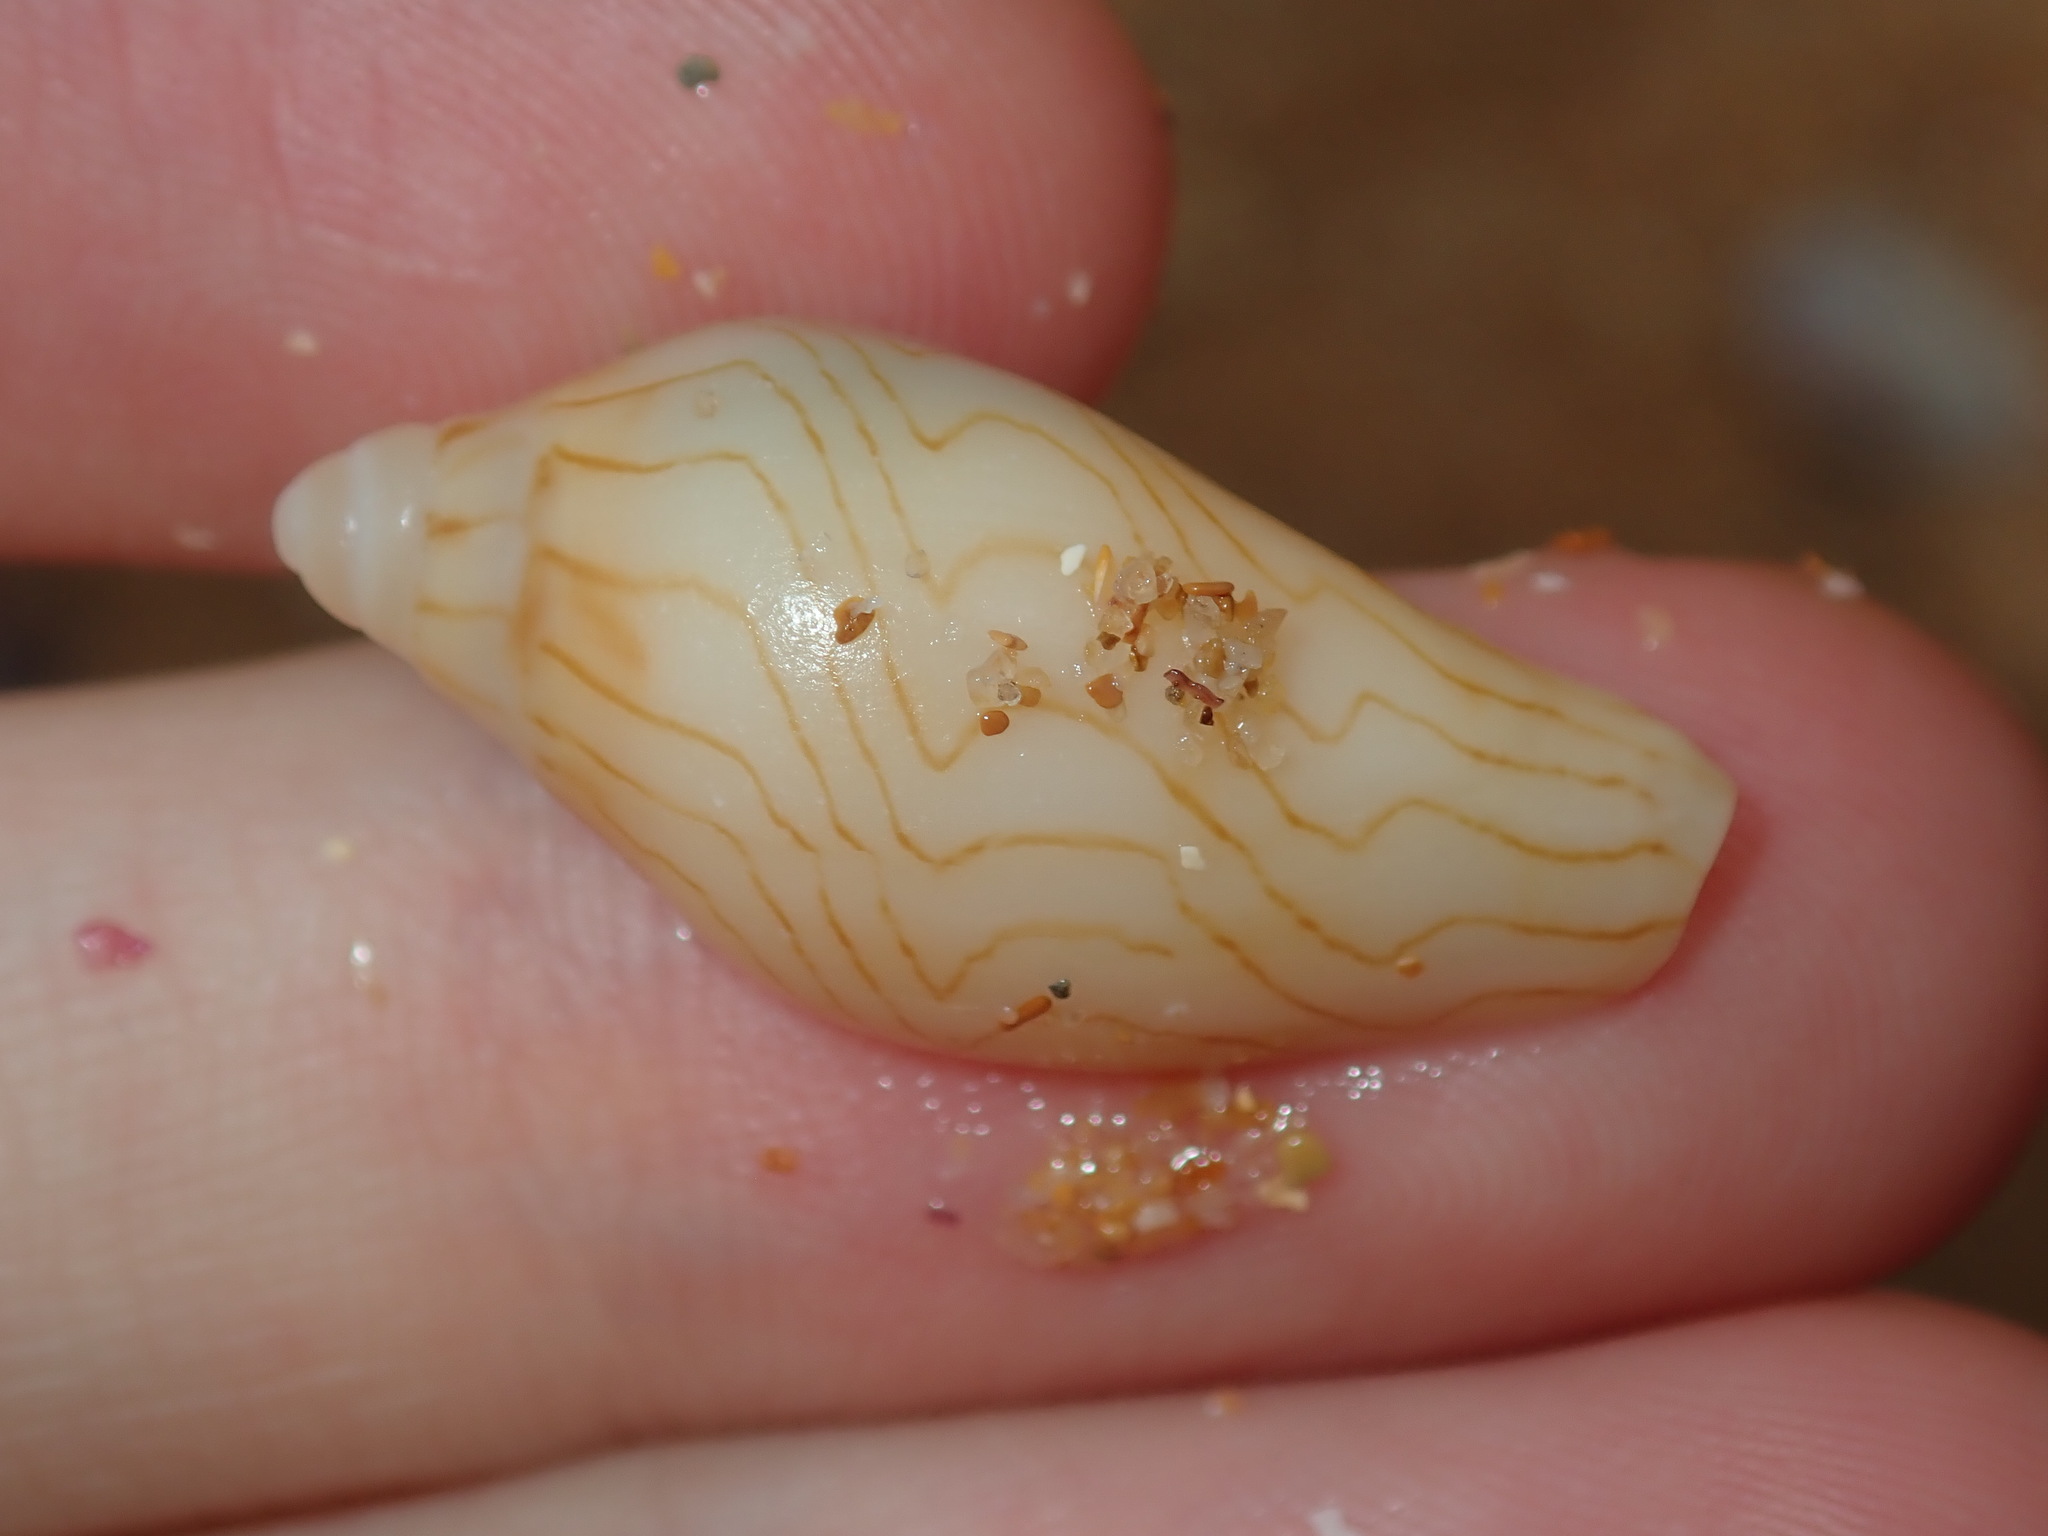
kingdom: Animalia
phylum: Mollusca
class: Gastropoda
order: Neogastropoda
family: Volutidae
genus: Amoria
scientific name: Amoria undulata
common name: Waved volute
